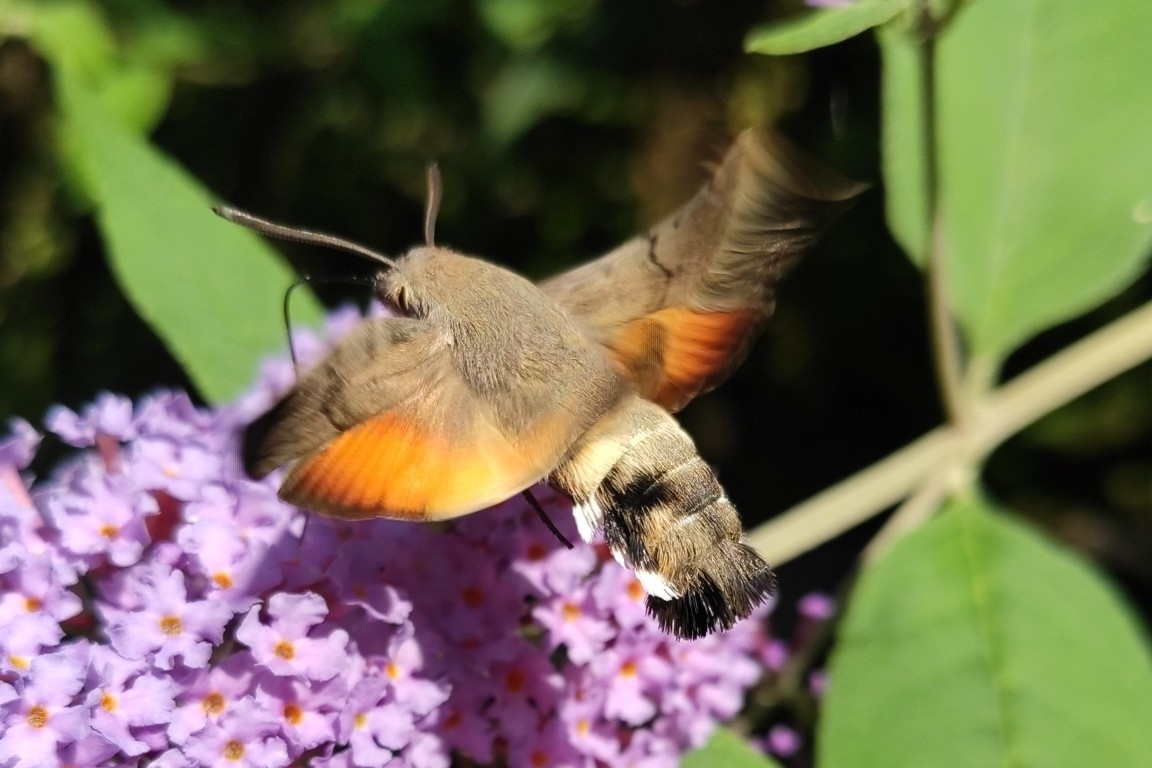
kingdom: Animalia
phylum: Arthropoda
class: Insecta
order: Lepidoptera
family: Sphingidae
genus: Macroglossum
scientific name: Macroglossum stellatarum
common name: Humming-bird hawk-moth
